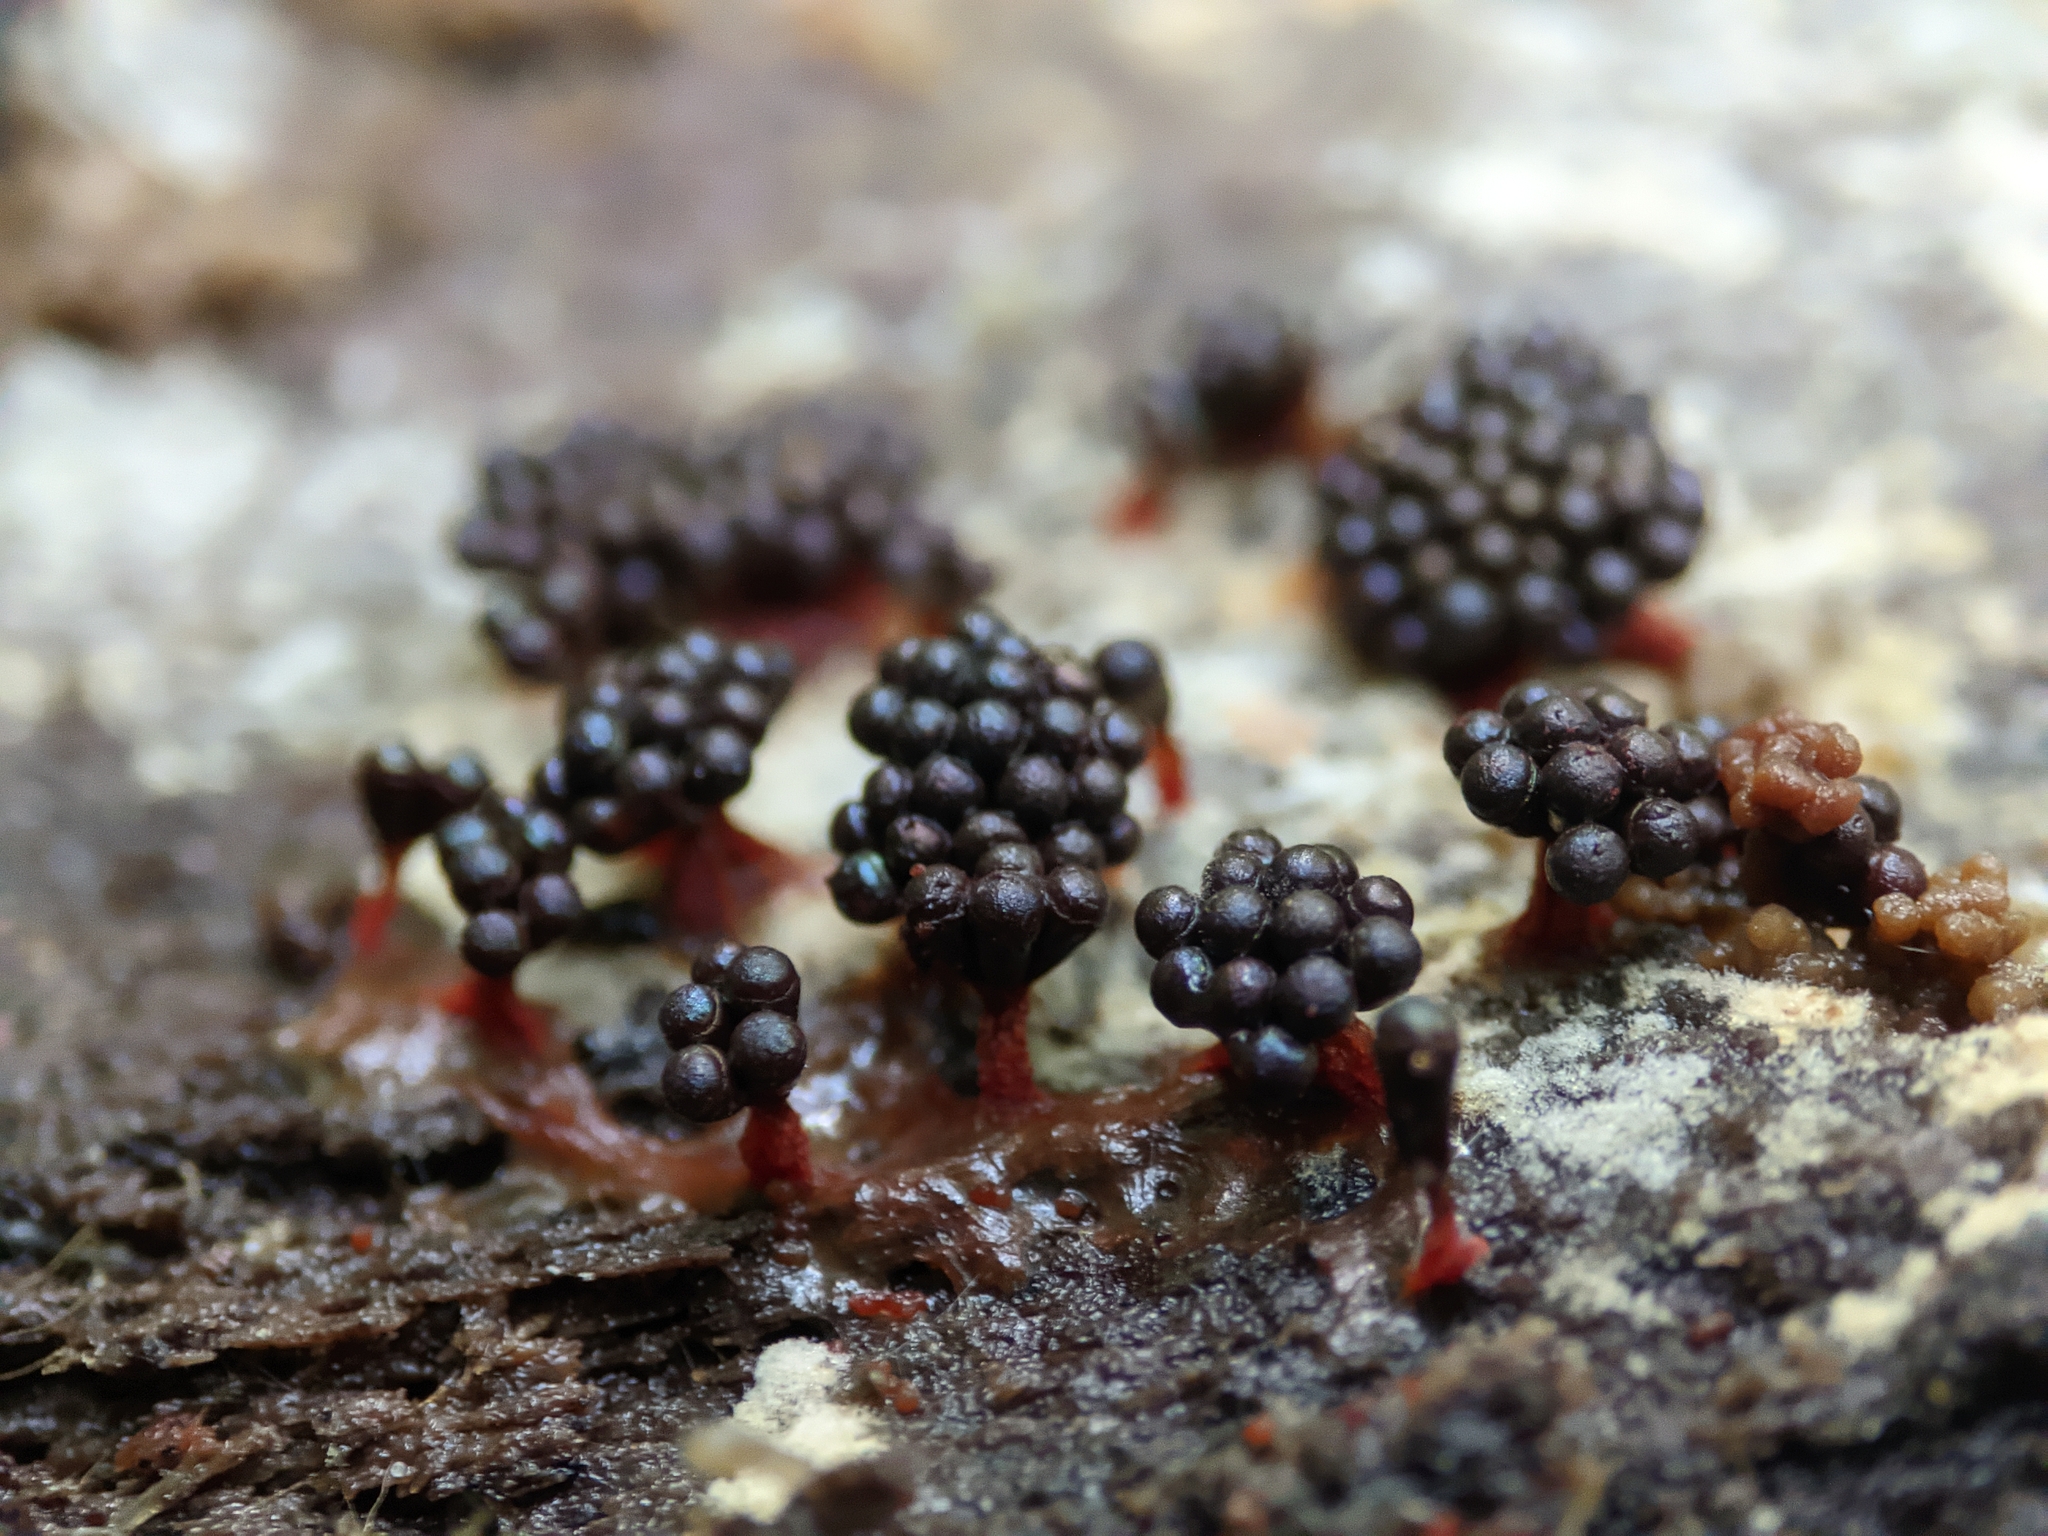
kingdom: Protozoa
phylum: Mycetozoa
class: Myxomycetes
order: Trichiales
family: Trichiaceae
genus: Metatrichia
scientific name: Metatrichia vesparia
